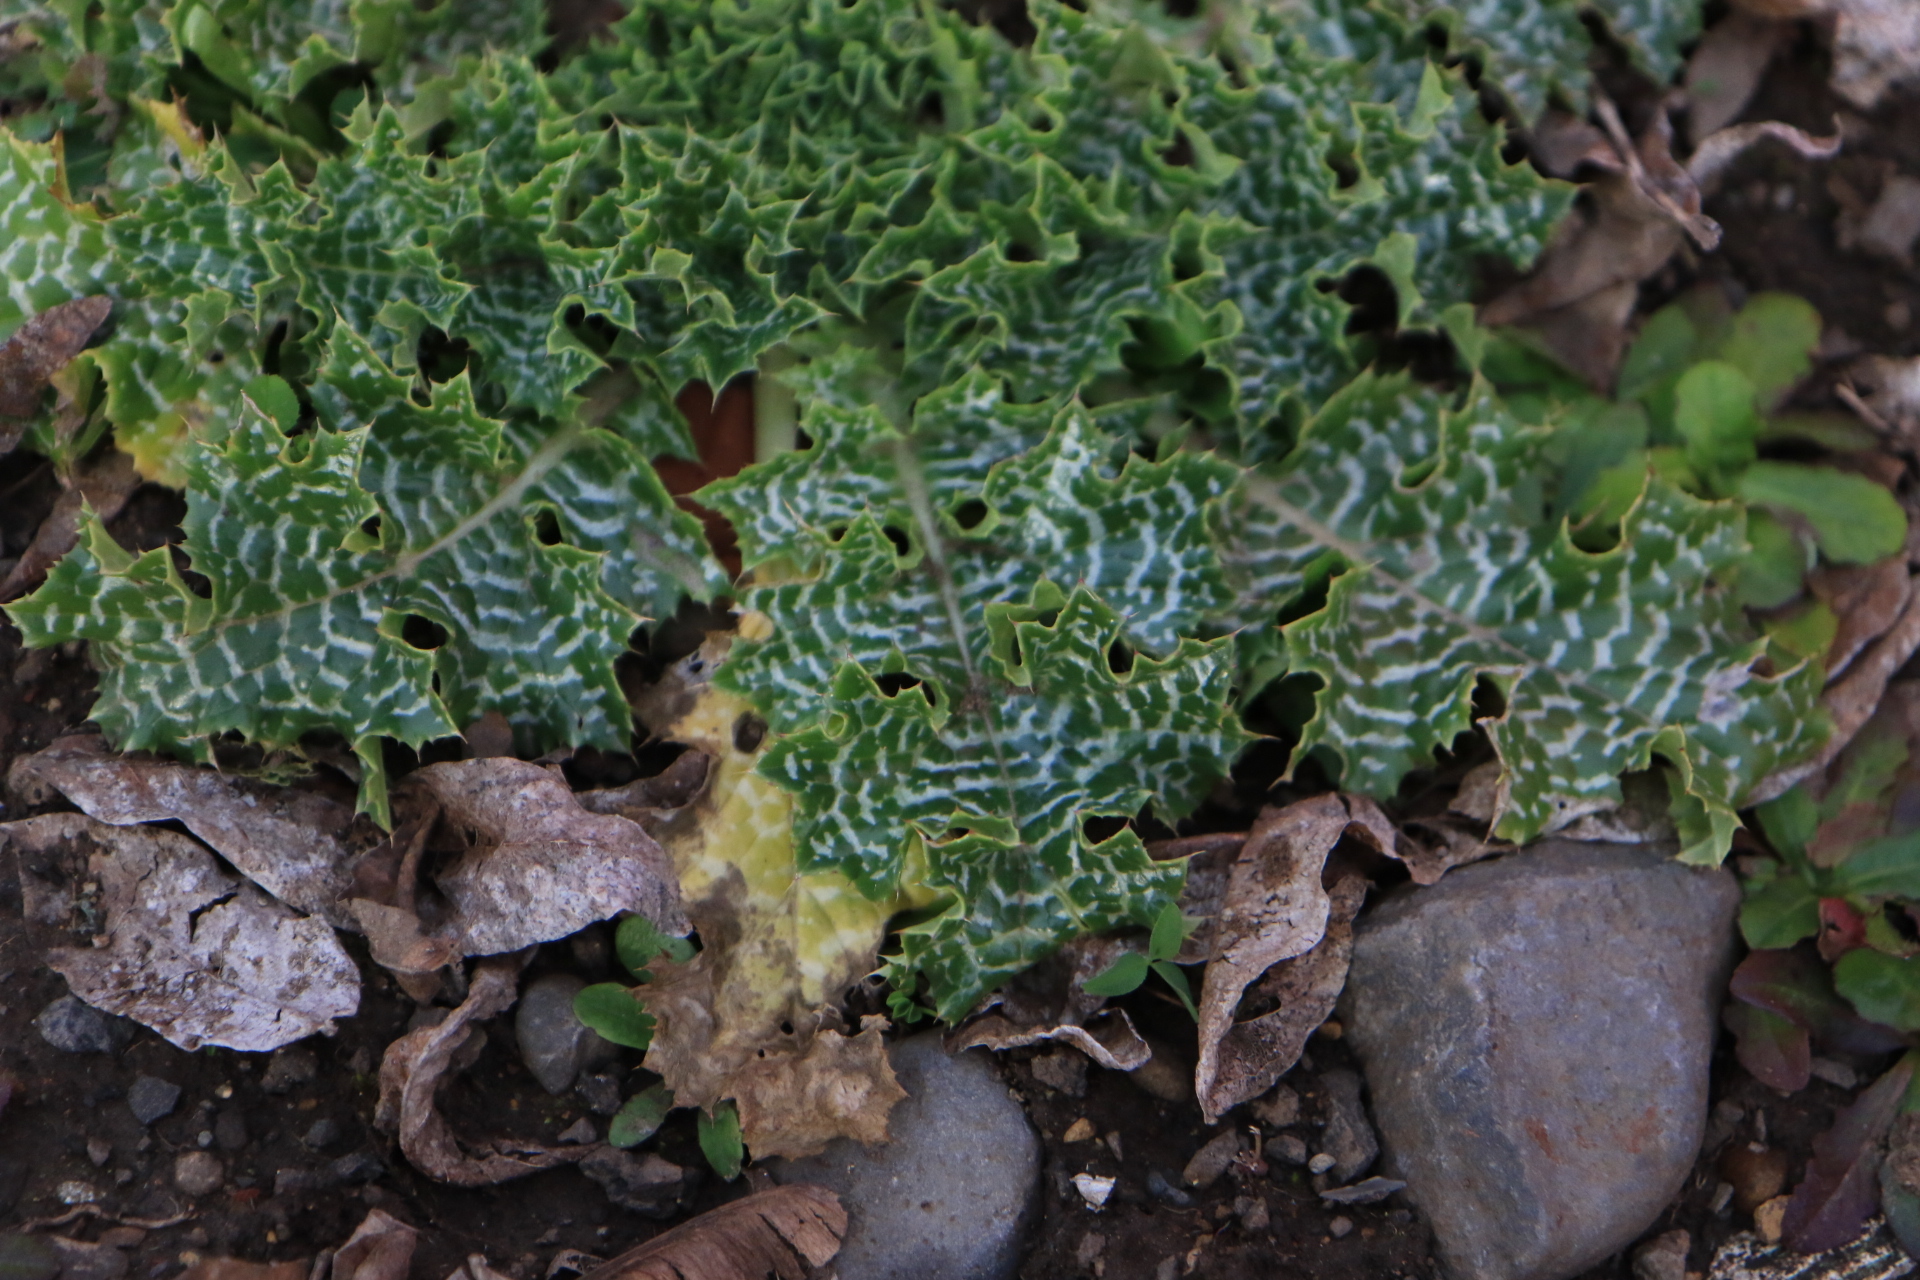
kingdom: Plantae
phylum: Tracheophyta
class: Magnoliopsida
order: Asterales
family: Asteraceae
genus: Silybum
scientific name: Silybum marianum
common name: Milk thistle
